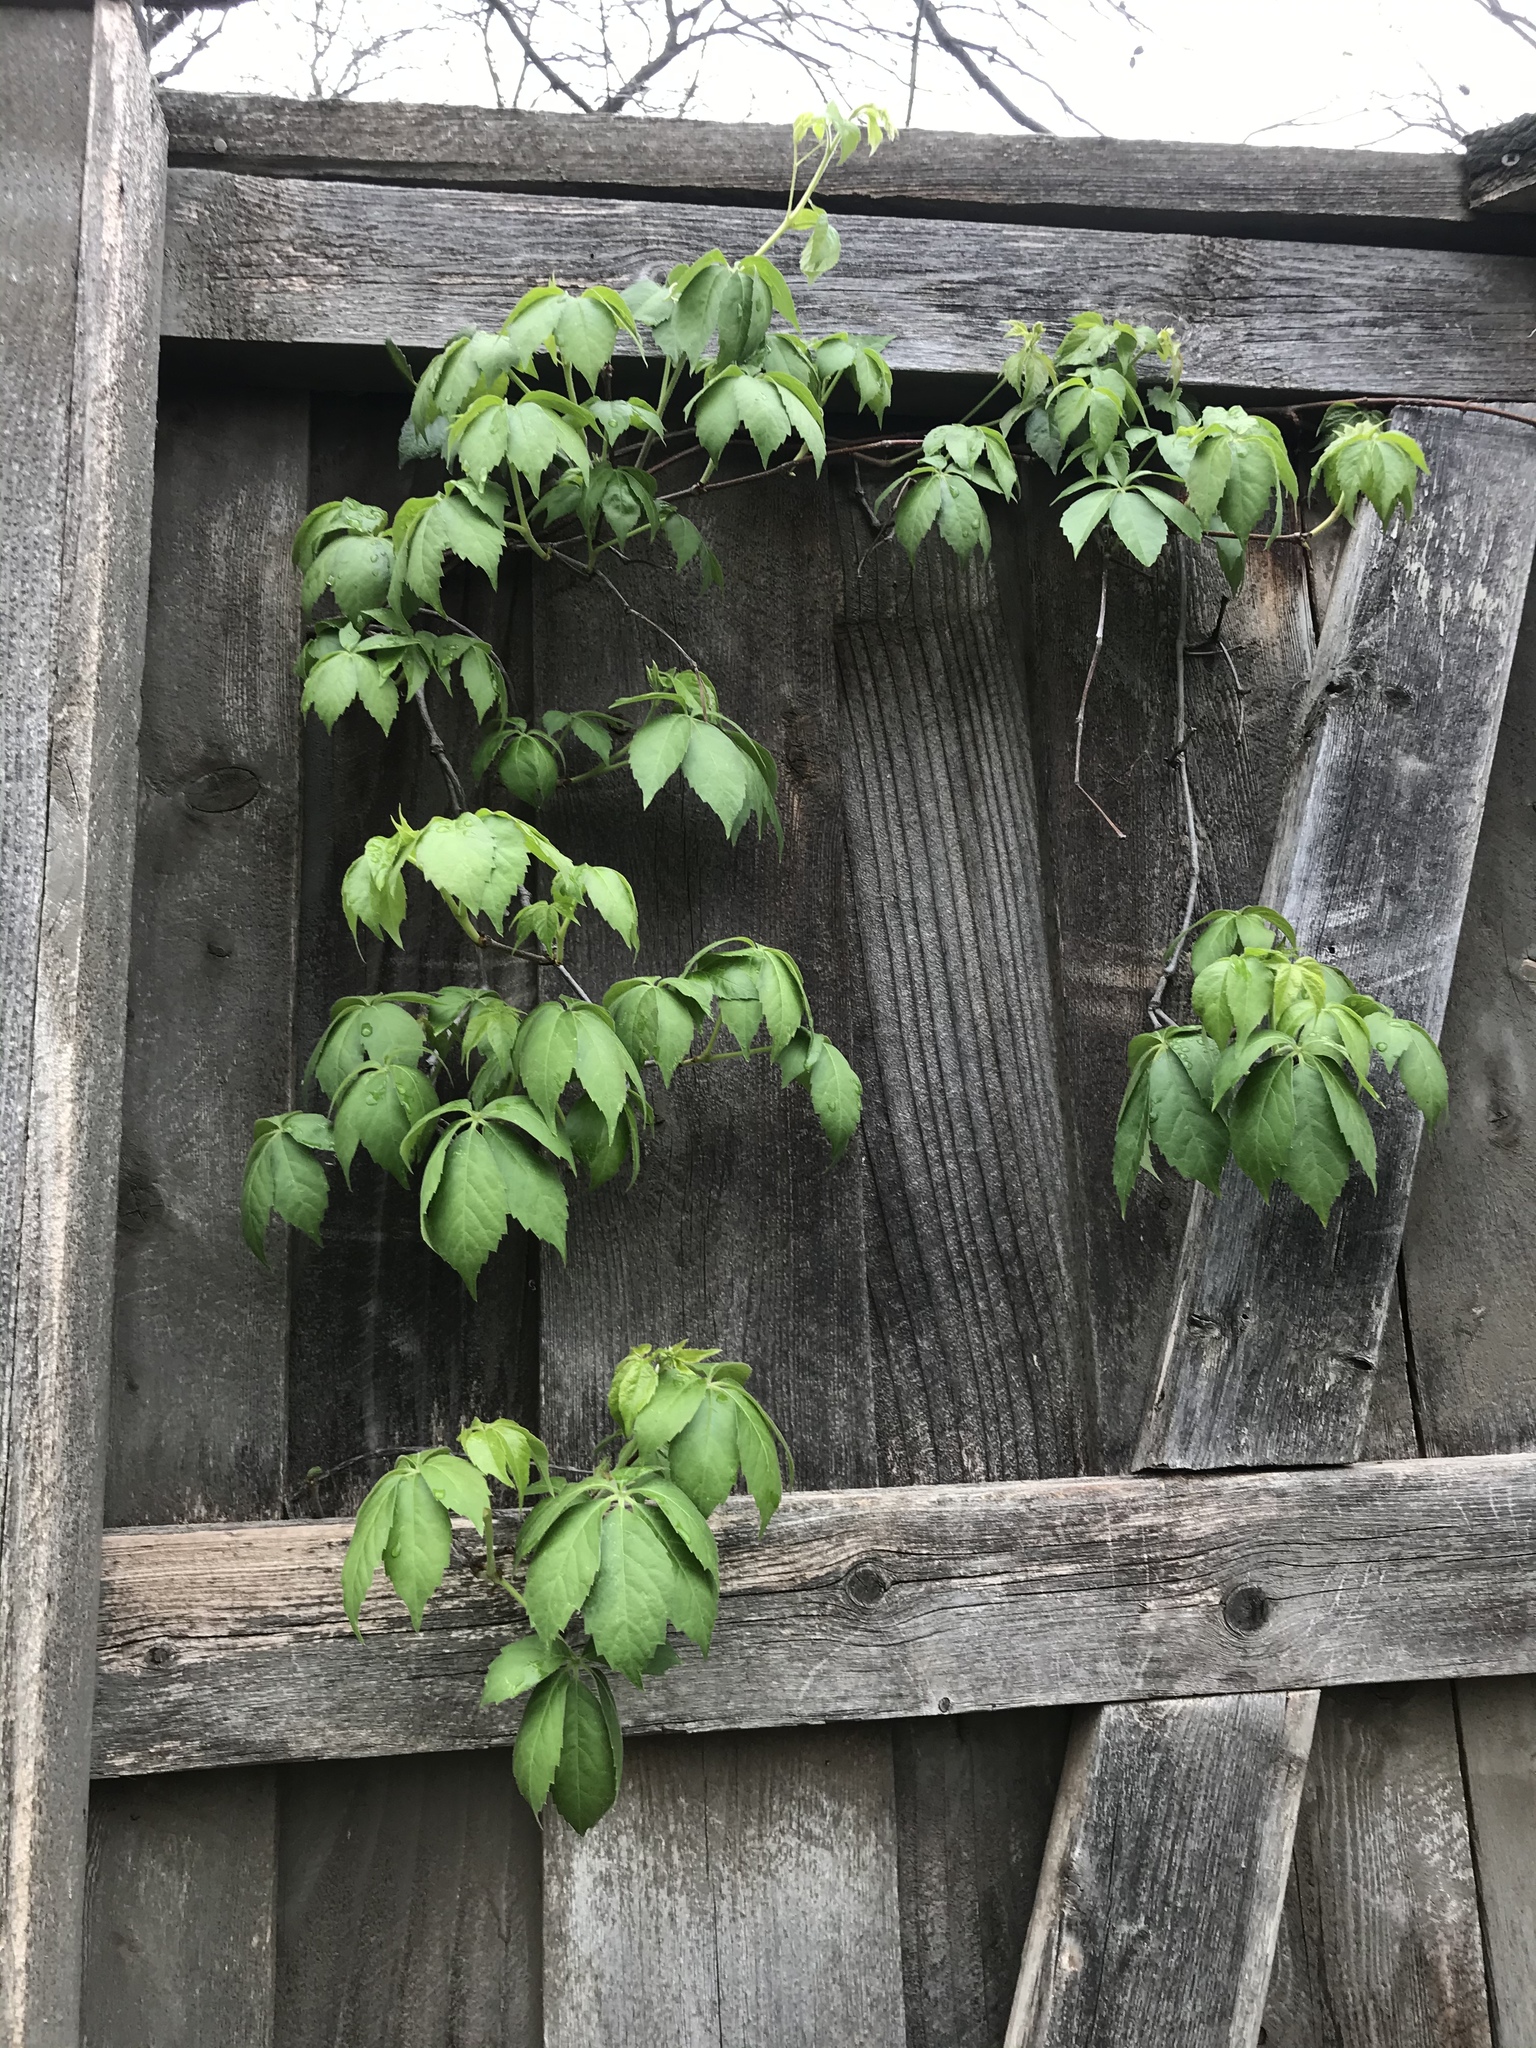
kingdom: Plantae
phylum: Tracheophyta
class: Magnoliopsida
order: Vitales
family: Vitaceae
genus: Parthenocissus
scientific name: Parthenocissus quinquefolia
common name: Virginia-creeper
